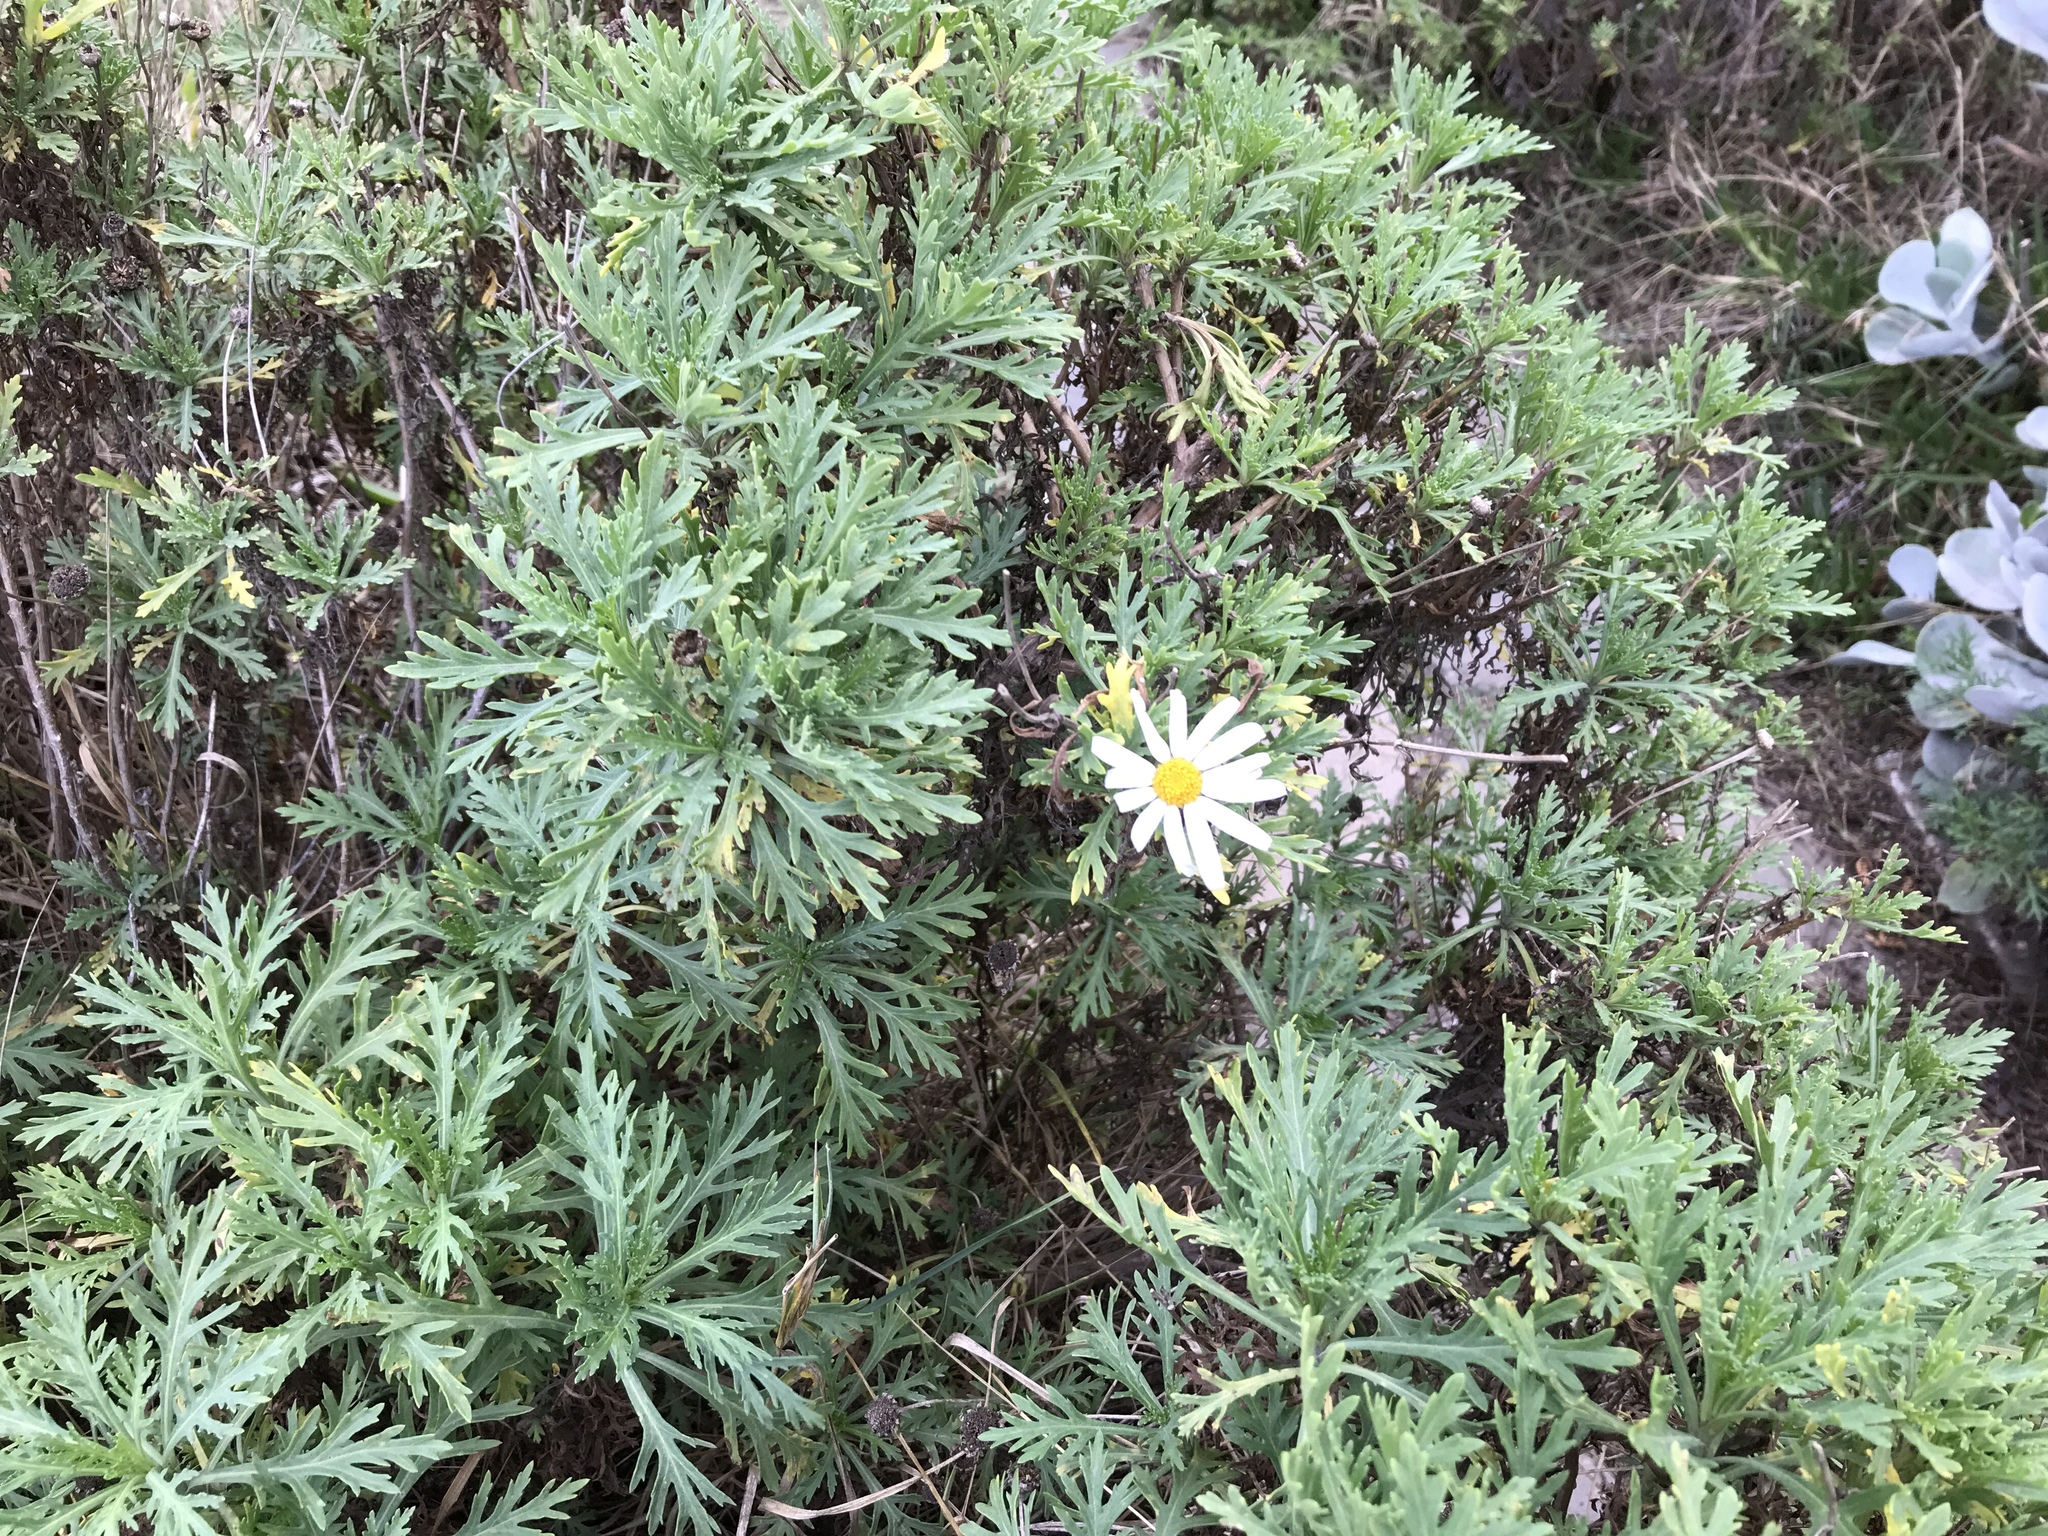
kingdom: Plantae
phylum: Tracheophyta
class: Magnoliopsida
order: Asterales
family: Asteraceae
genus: Argyranthemum
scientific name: Argyranthemum frutescens
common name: Paris daisy
